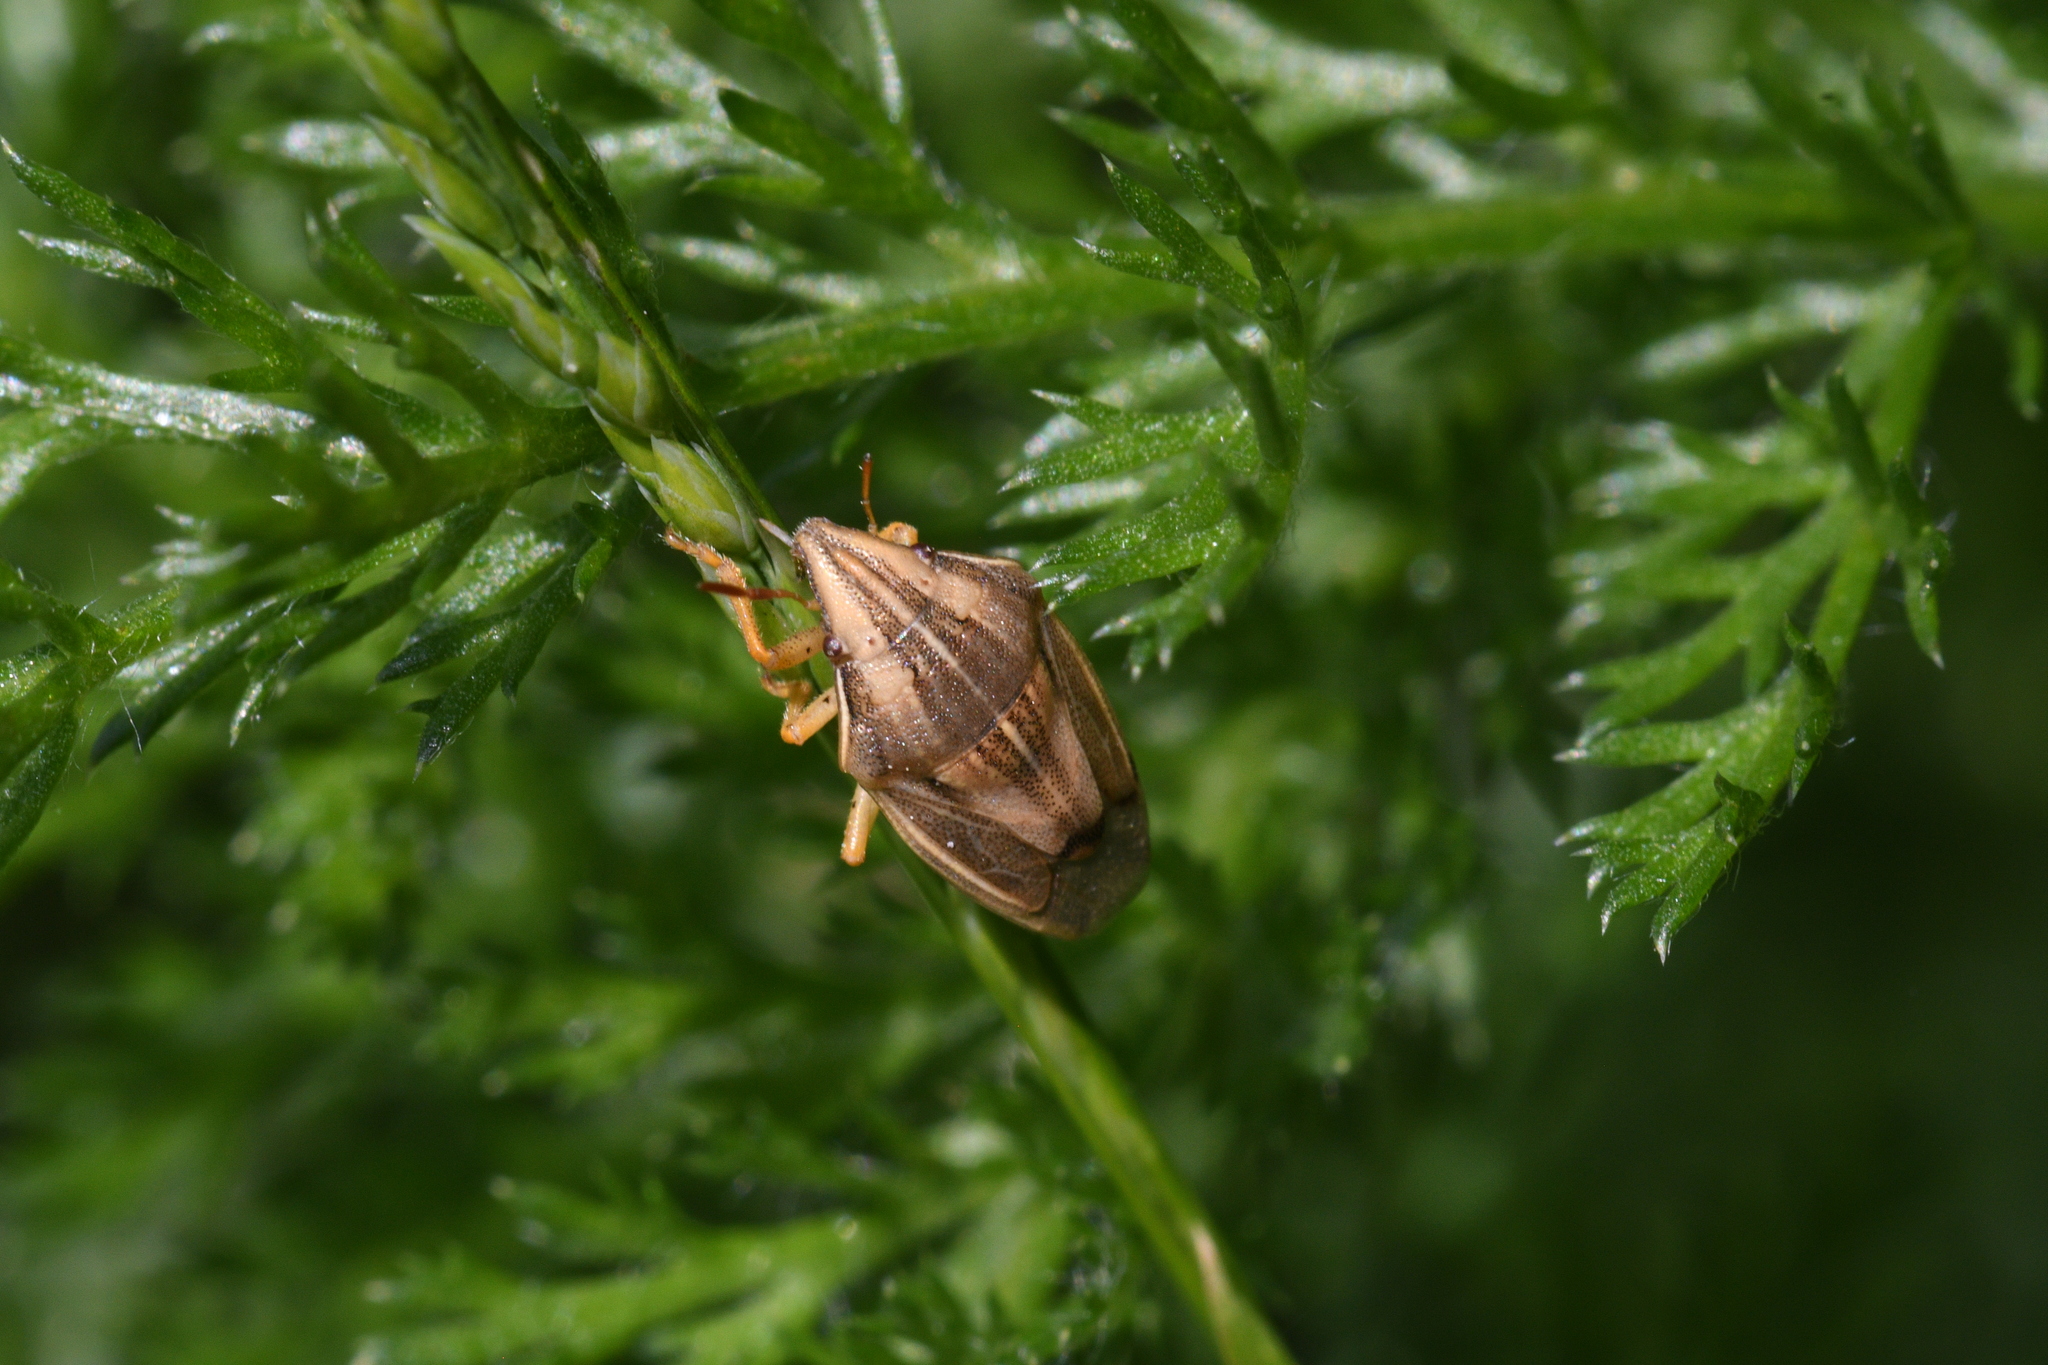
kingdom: Animalia
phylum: Arthropoda
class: Insecta
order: Hemiptera
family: Pentatomidae
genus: Aelia
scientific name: Aelia acuminata
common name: Bishop's mitre
